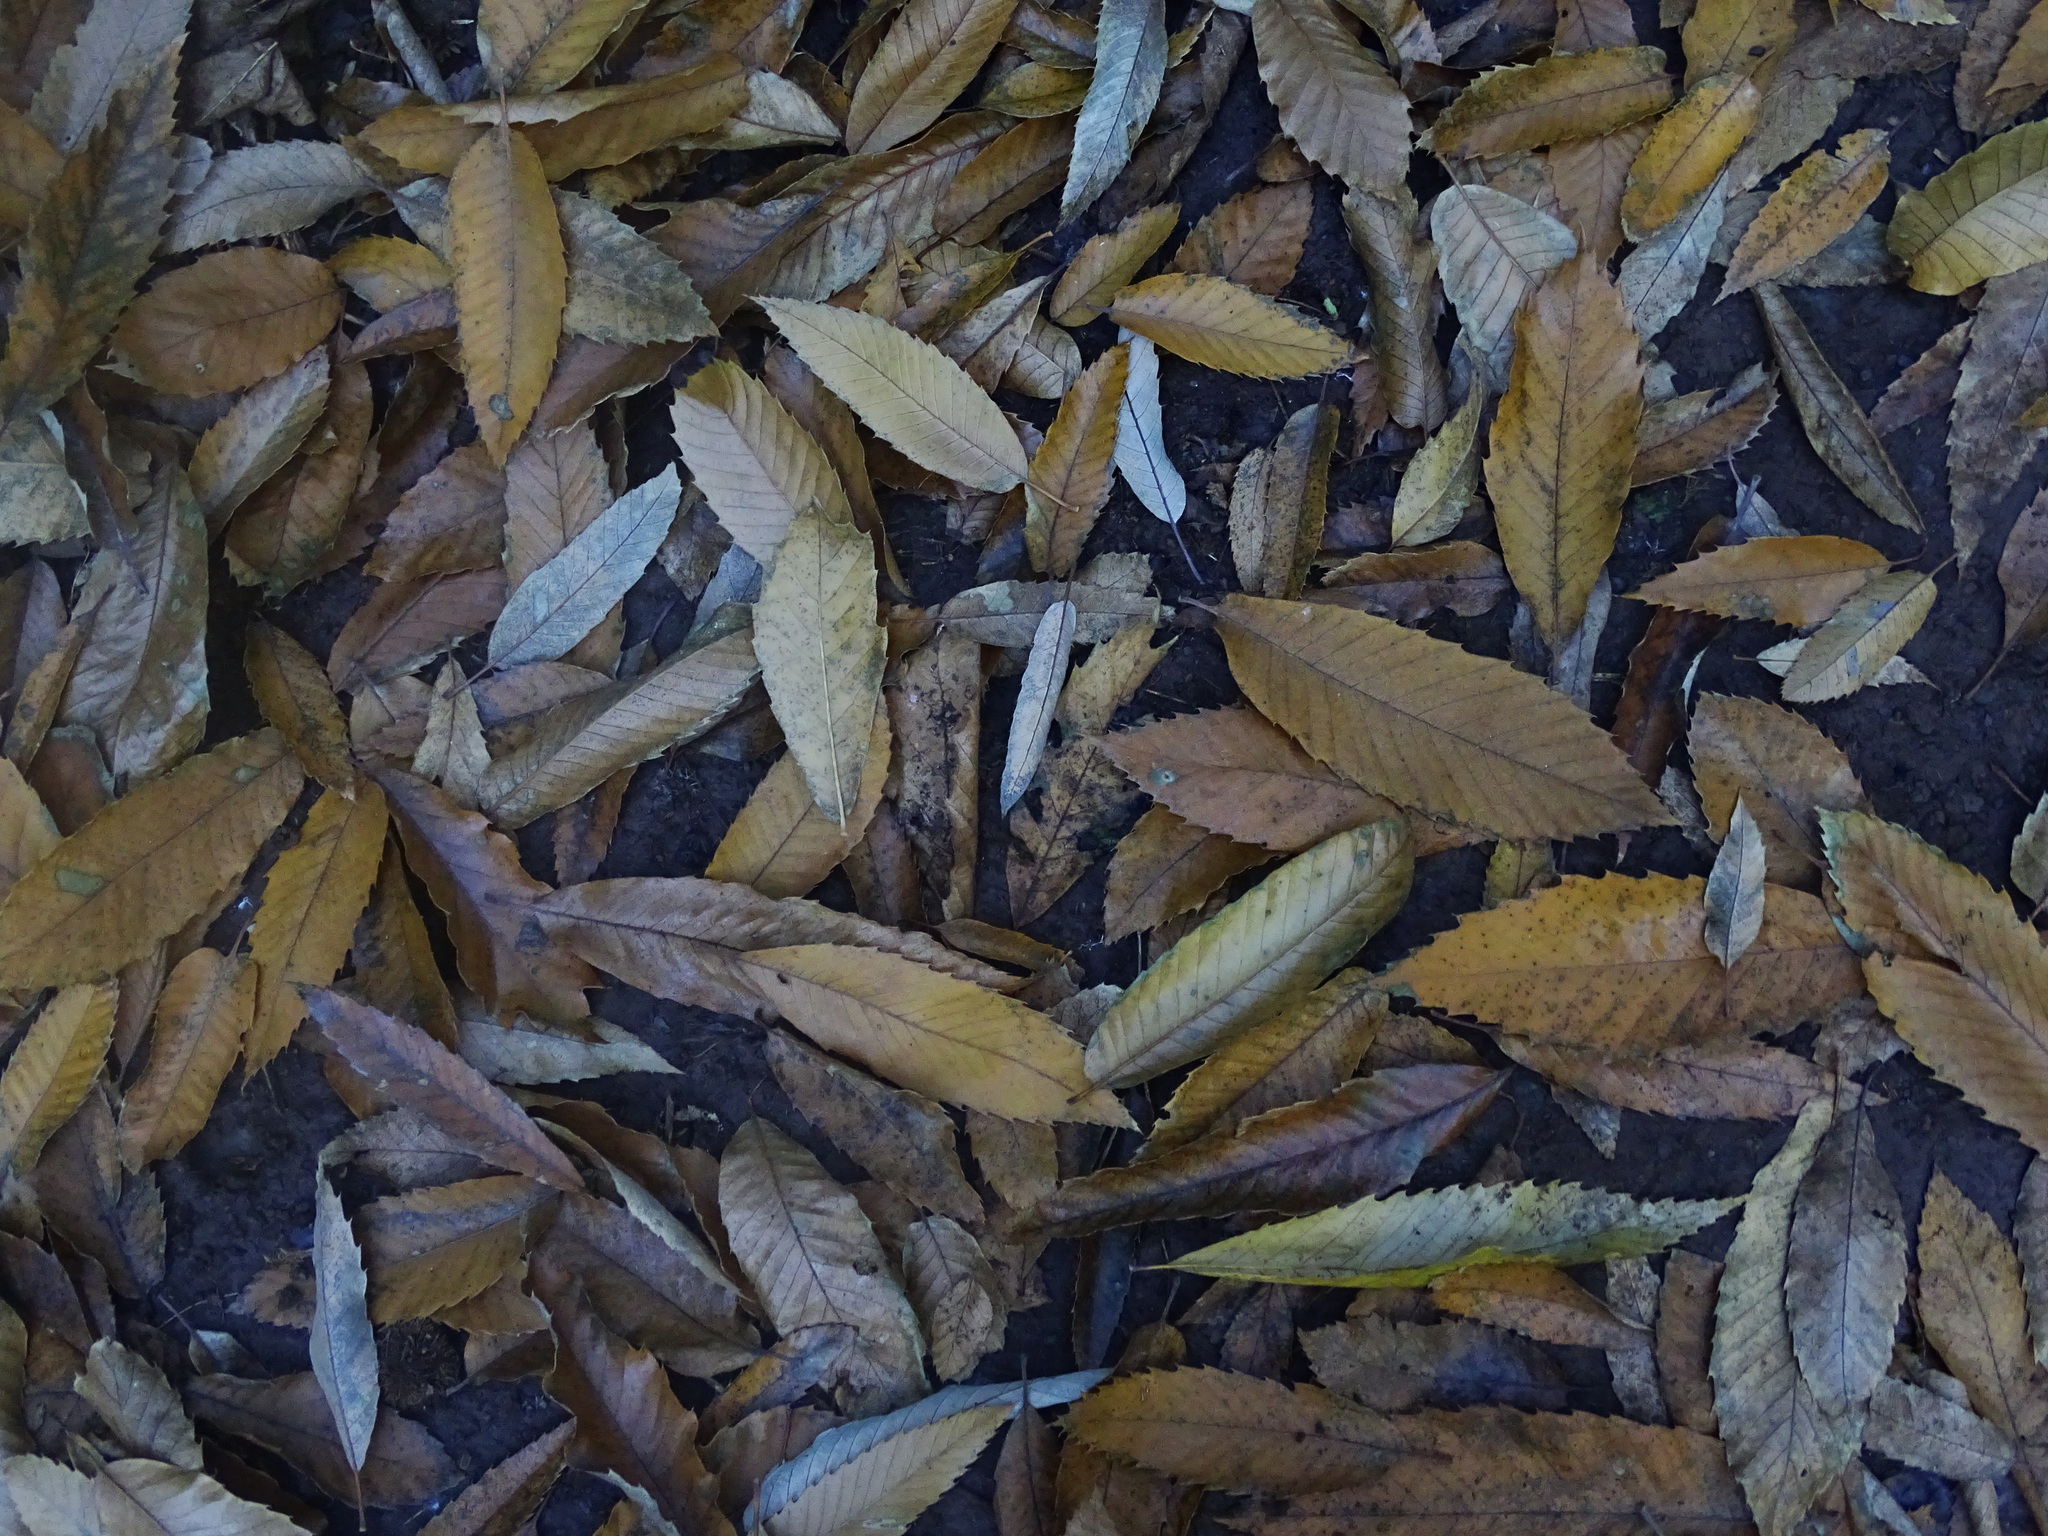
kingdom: Plantae
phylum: Tracheophyta
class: Magnoliopsida
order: Fagales
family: Fagaceae
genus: Castanea
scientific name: Castanea sativa
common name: Sweet chestnut
